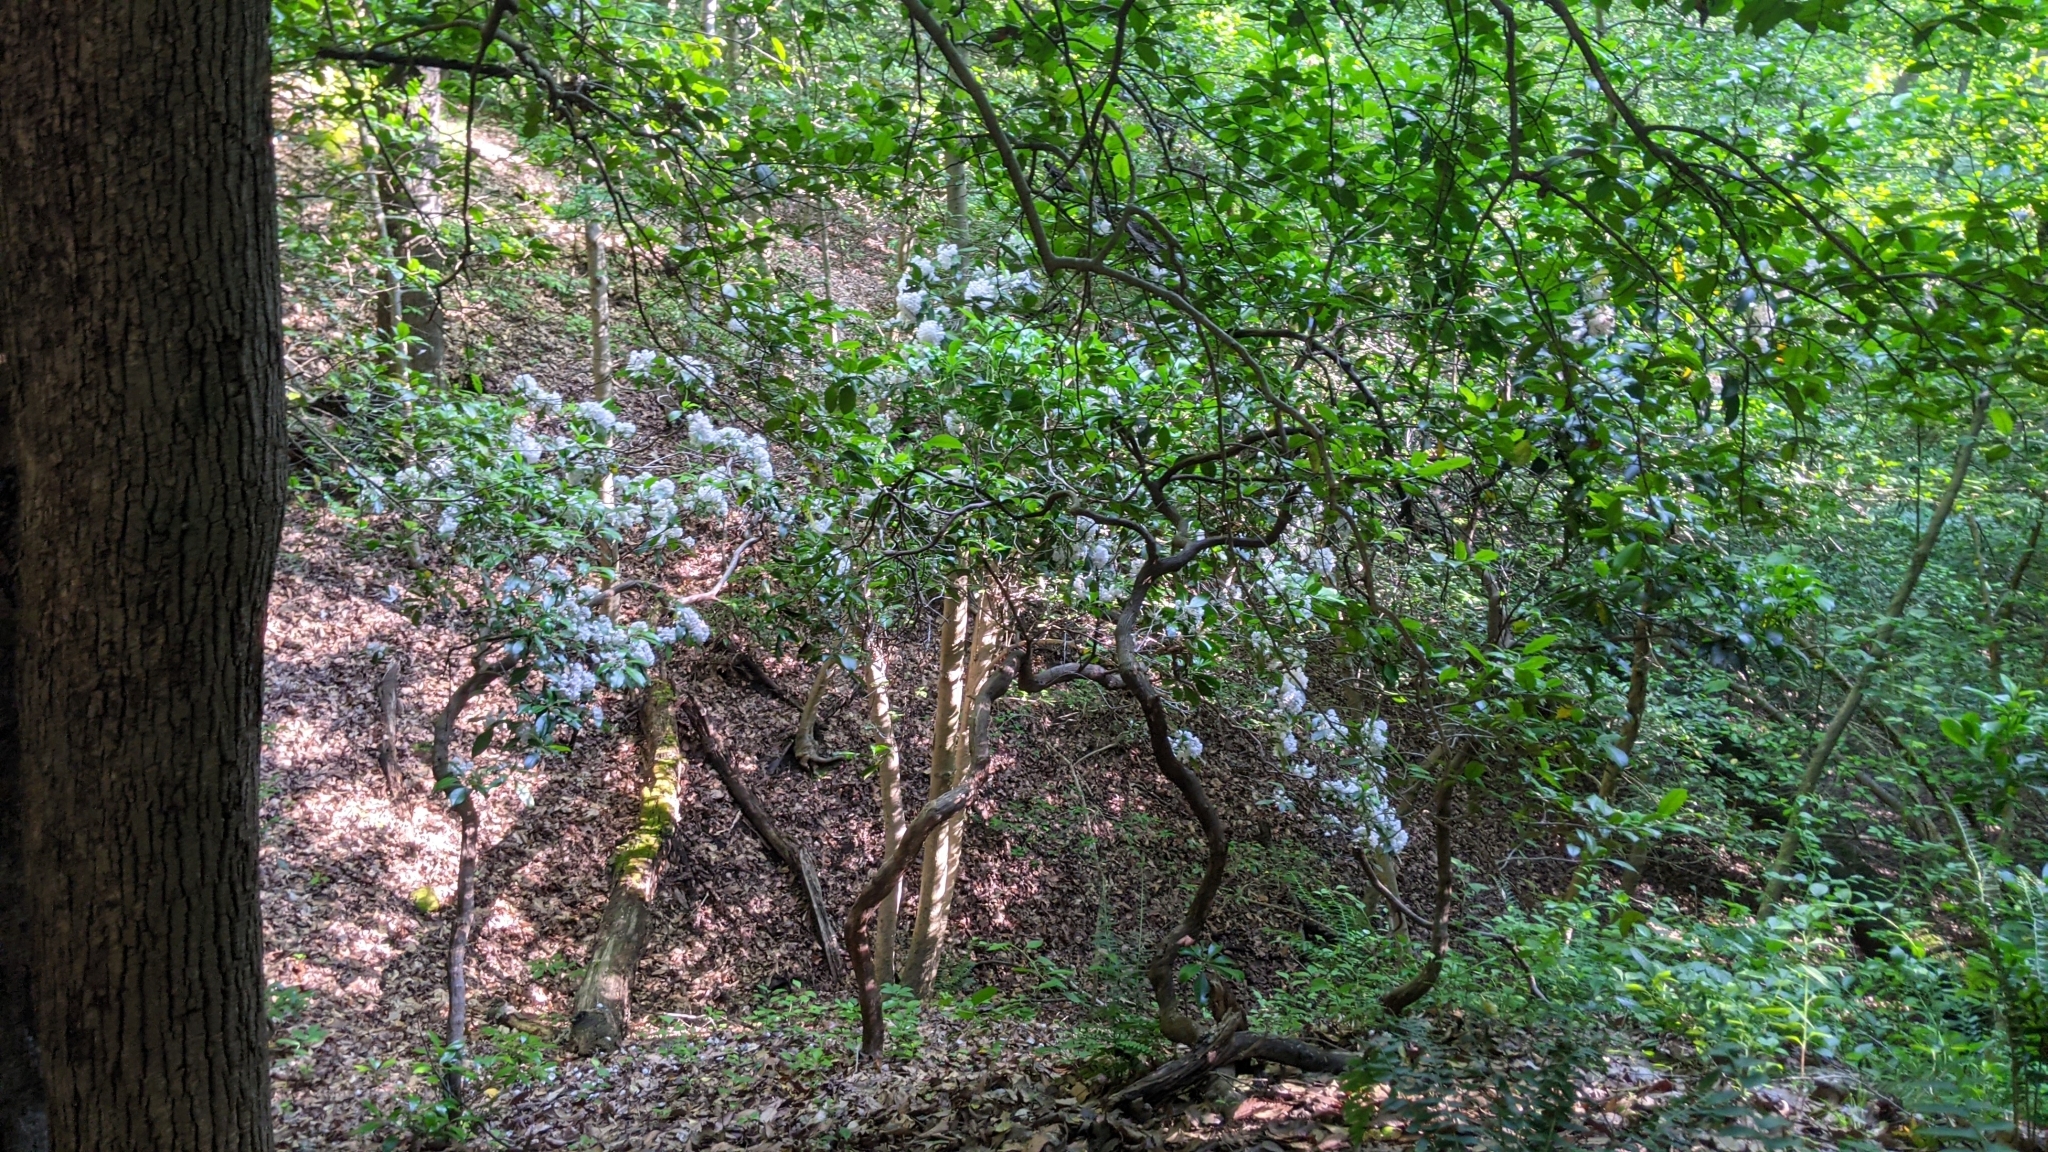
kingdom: Plantae
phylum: Tracheophyta
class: Magnoliopsida
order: Ericales
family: Ericaceae
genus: Kalmia
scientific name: Kalmia latifolia
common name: Mountain-laurel
